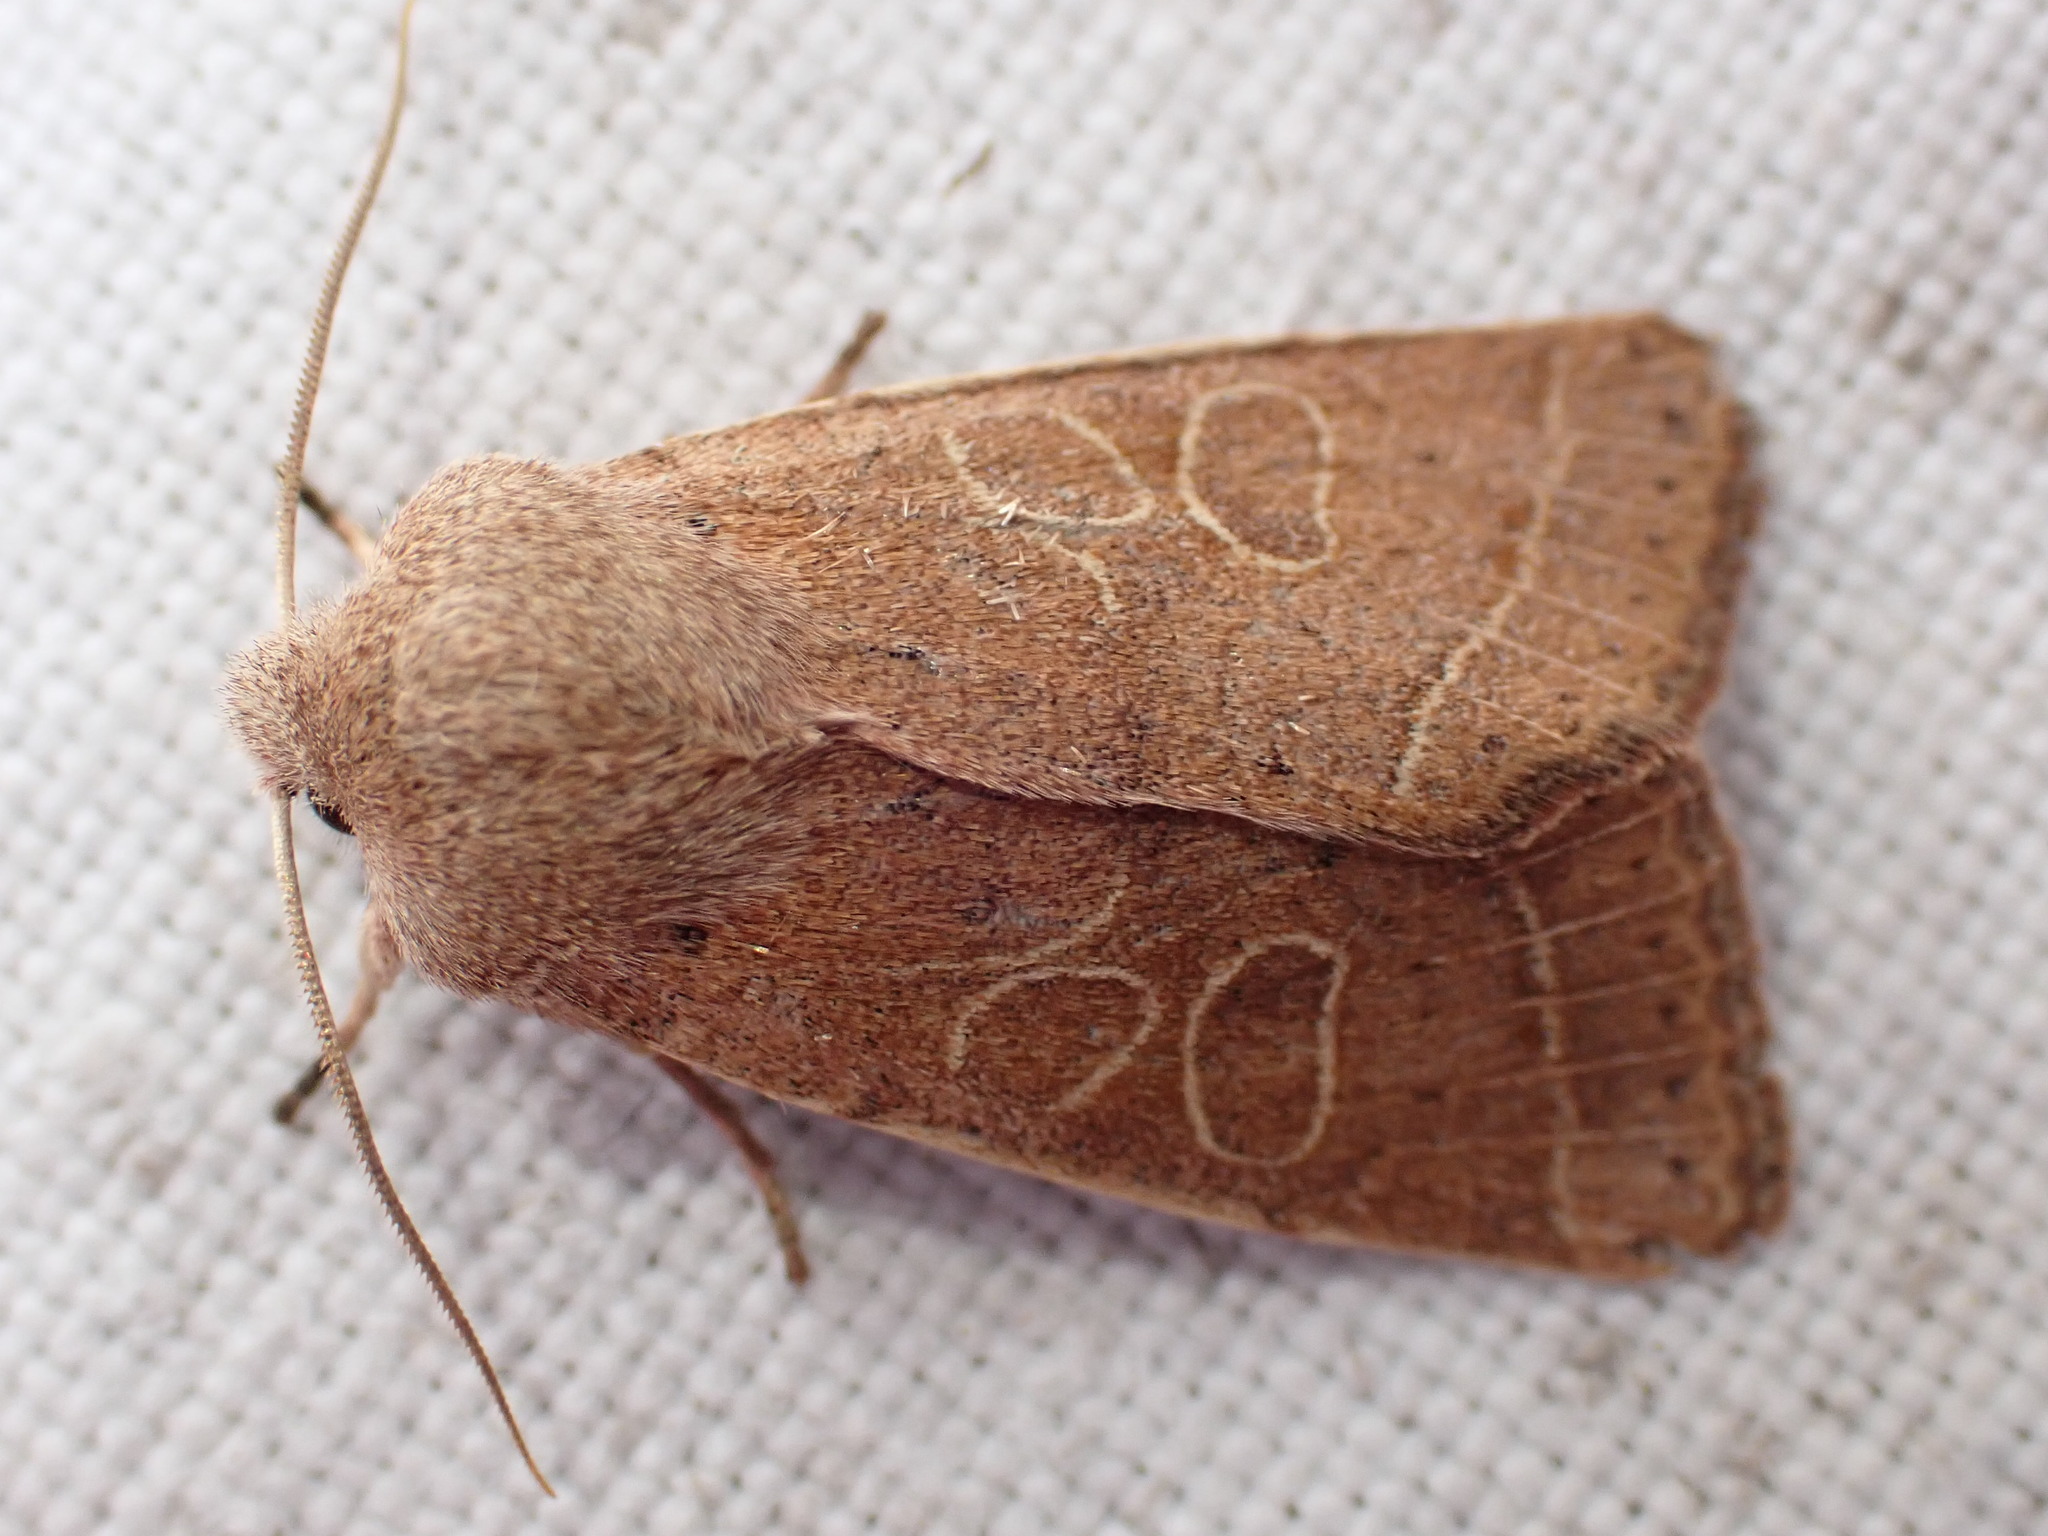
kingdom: Animalia
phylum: Arthropoda
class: Insecta
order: Lepidoptera
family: Noctuidae
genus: Orthosia
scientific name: Orthosia cerasi
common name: Common quaker
